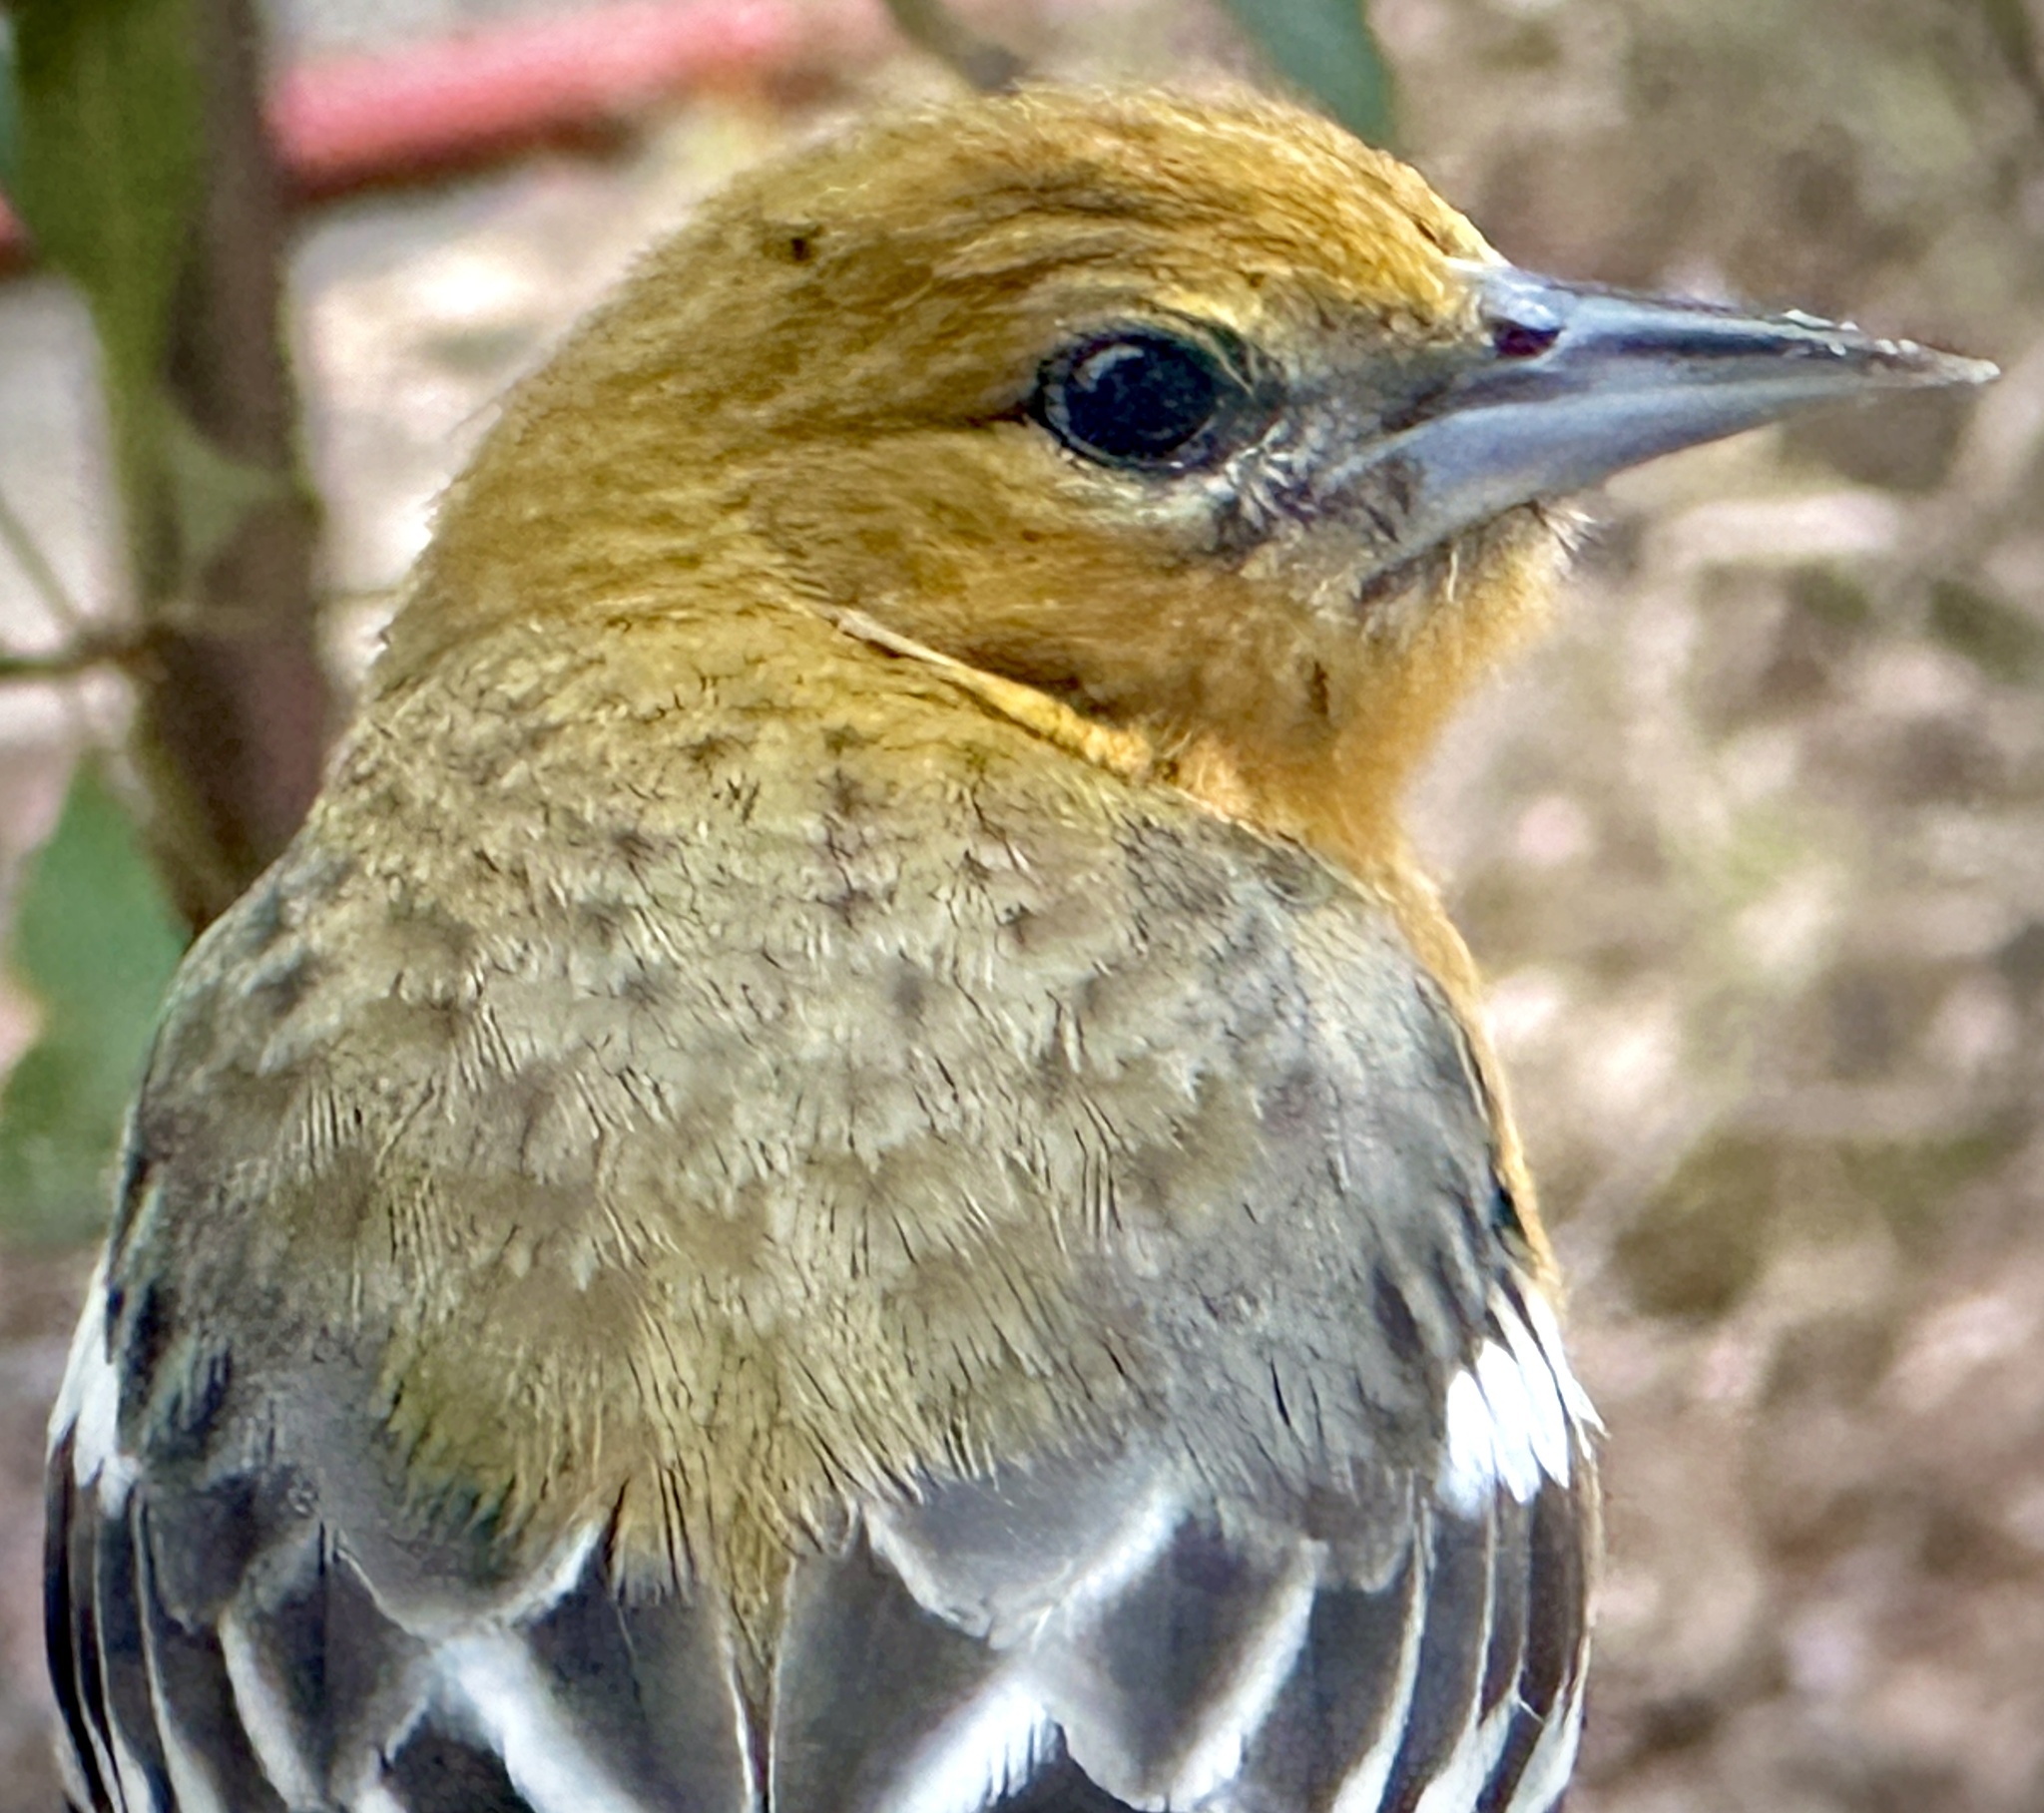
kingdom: Animalia
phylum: Chordata
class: Aves
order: Passeriformes
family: Icteridae
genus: Icterus
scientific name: Icterus galbula
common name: Baltimore oriole
